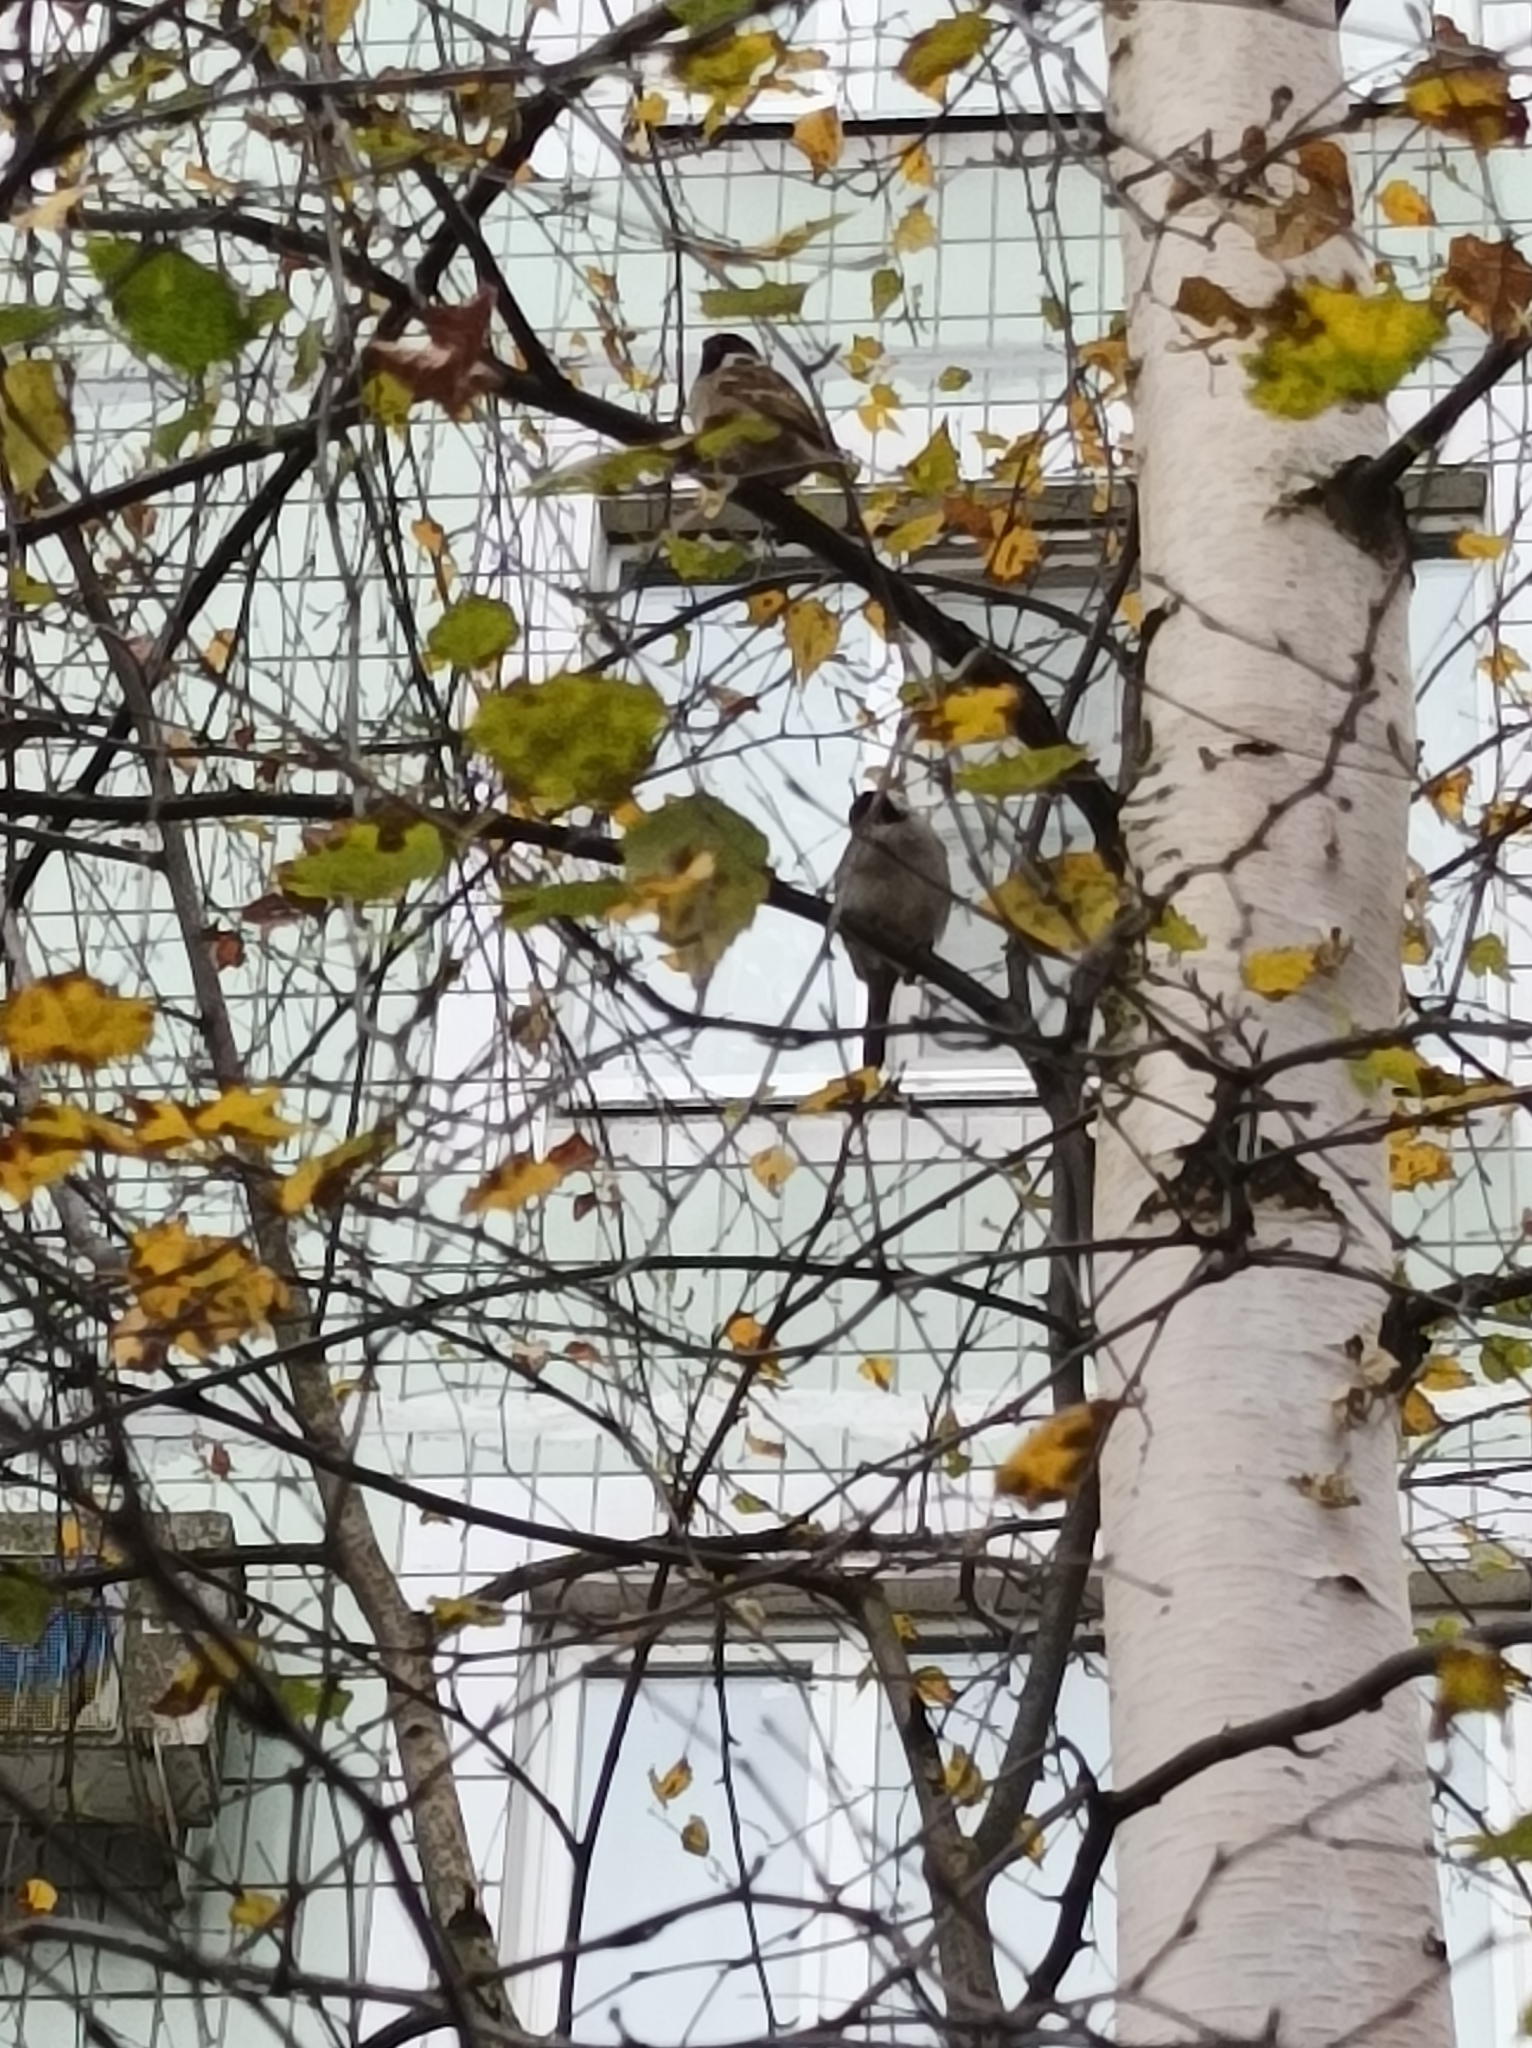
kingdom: Animalia
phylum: Chordata
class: Aves
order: Passeriformes
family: Passeridae
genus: Passer
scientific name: Passer montanus
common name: Eurasian tree sparrow
